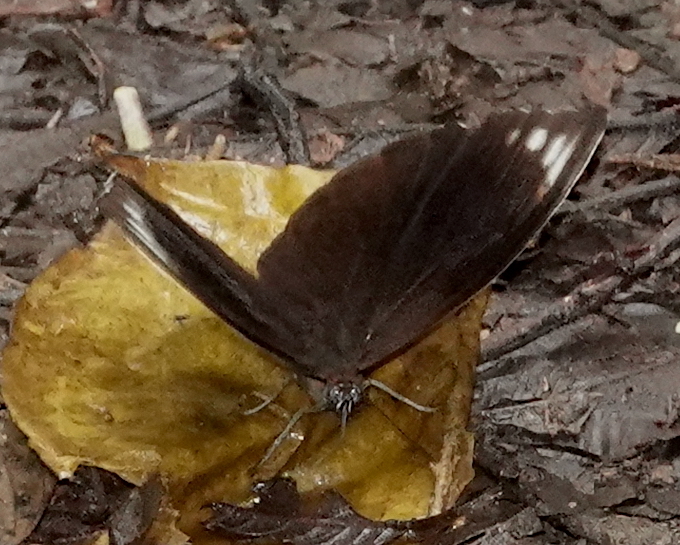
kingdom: Animalia
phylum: Arthropoda
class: Insecta
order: Lepidoptera
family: Nymphalidae
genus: Pronophila
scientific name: Pronophila unifasciata
